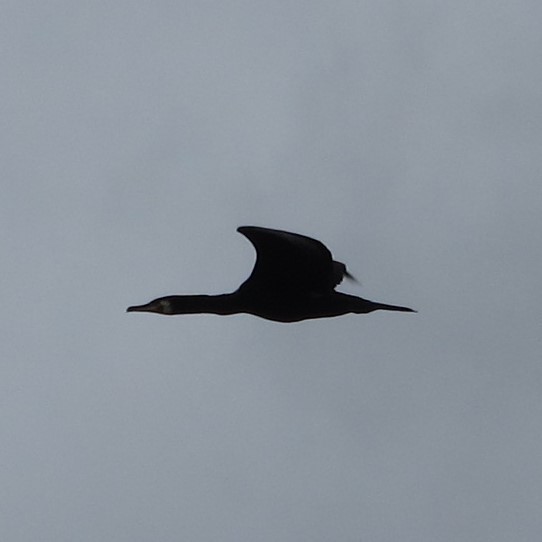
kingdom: Animalia
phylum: Chordata
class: Aves
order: Suliformes
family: Phalacrocoracidae
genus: Phalacrocorax
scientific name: Phalacrocorax carbo
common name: Great cormorant
